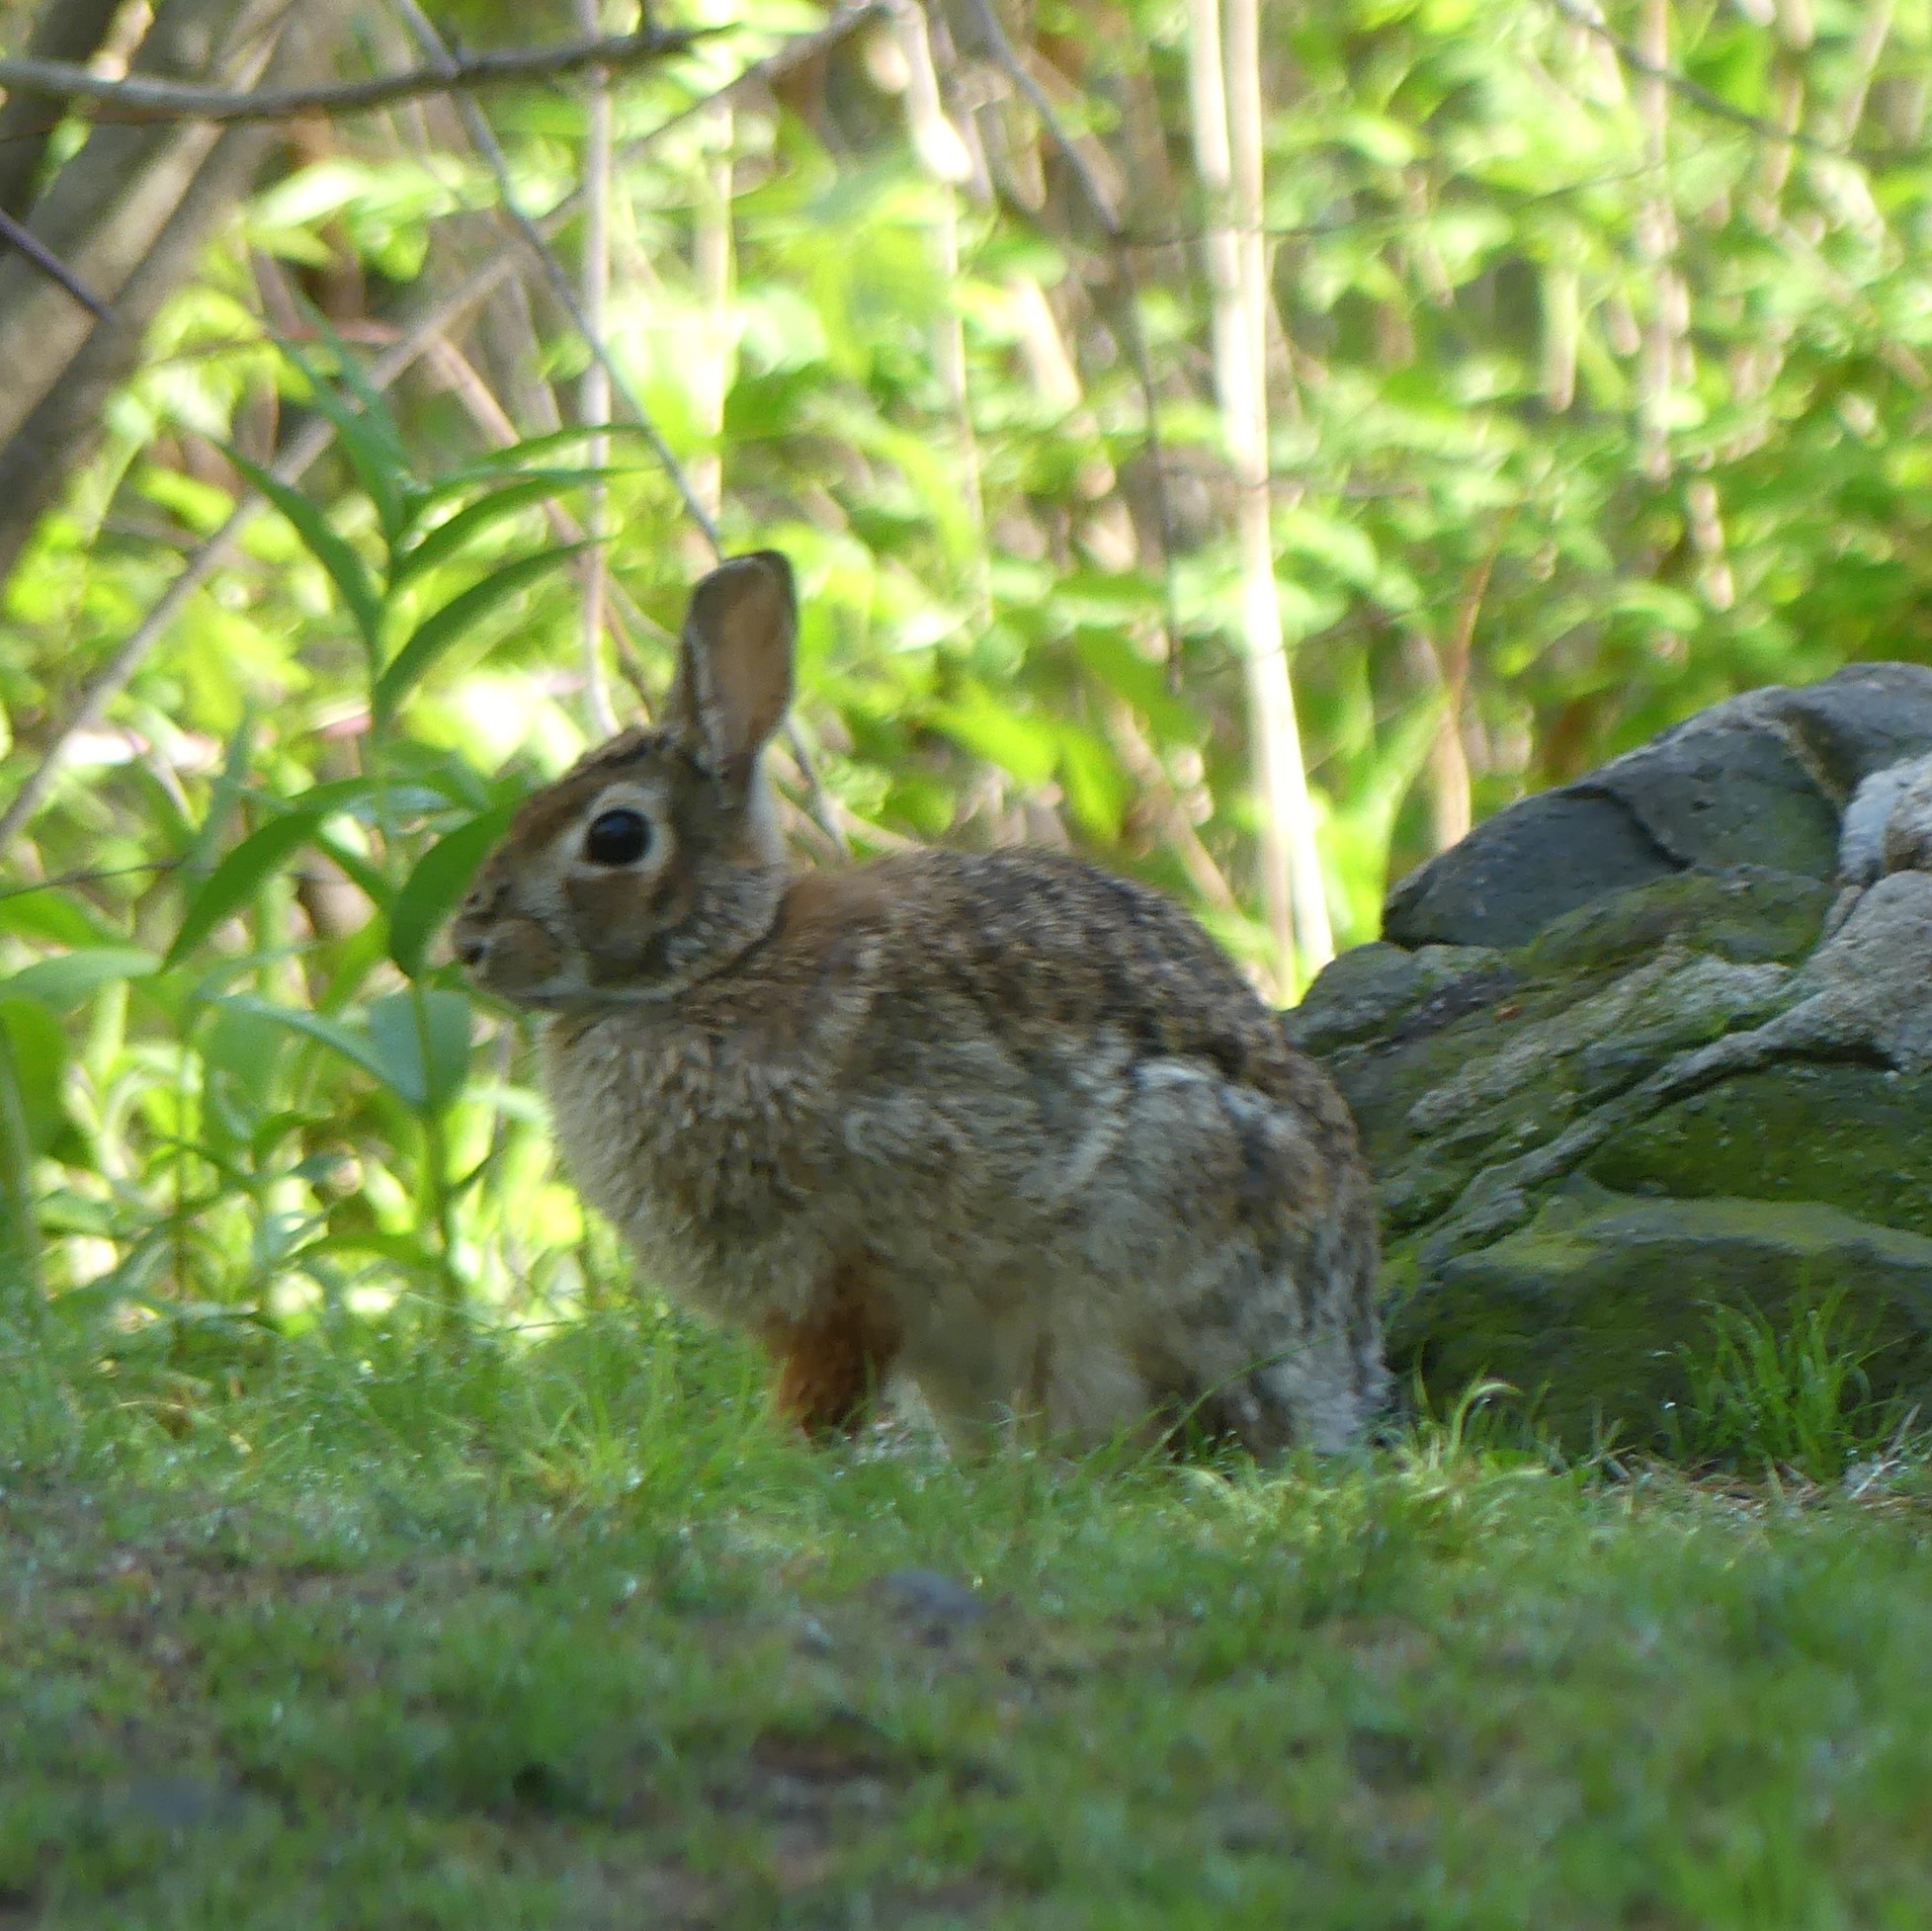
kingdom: Animalia
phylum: Chordata
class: Mammalia
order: Lagomorpha
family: Leporidae
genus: Sylvilagus
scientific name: Sylvilagus floridanus
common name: Eastern cottontail
